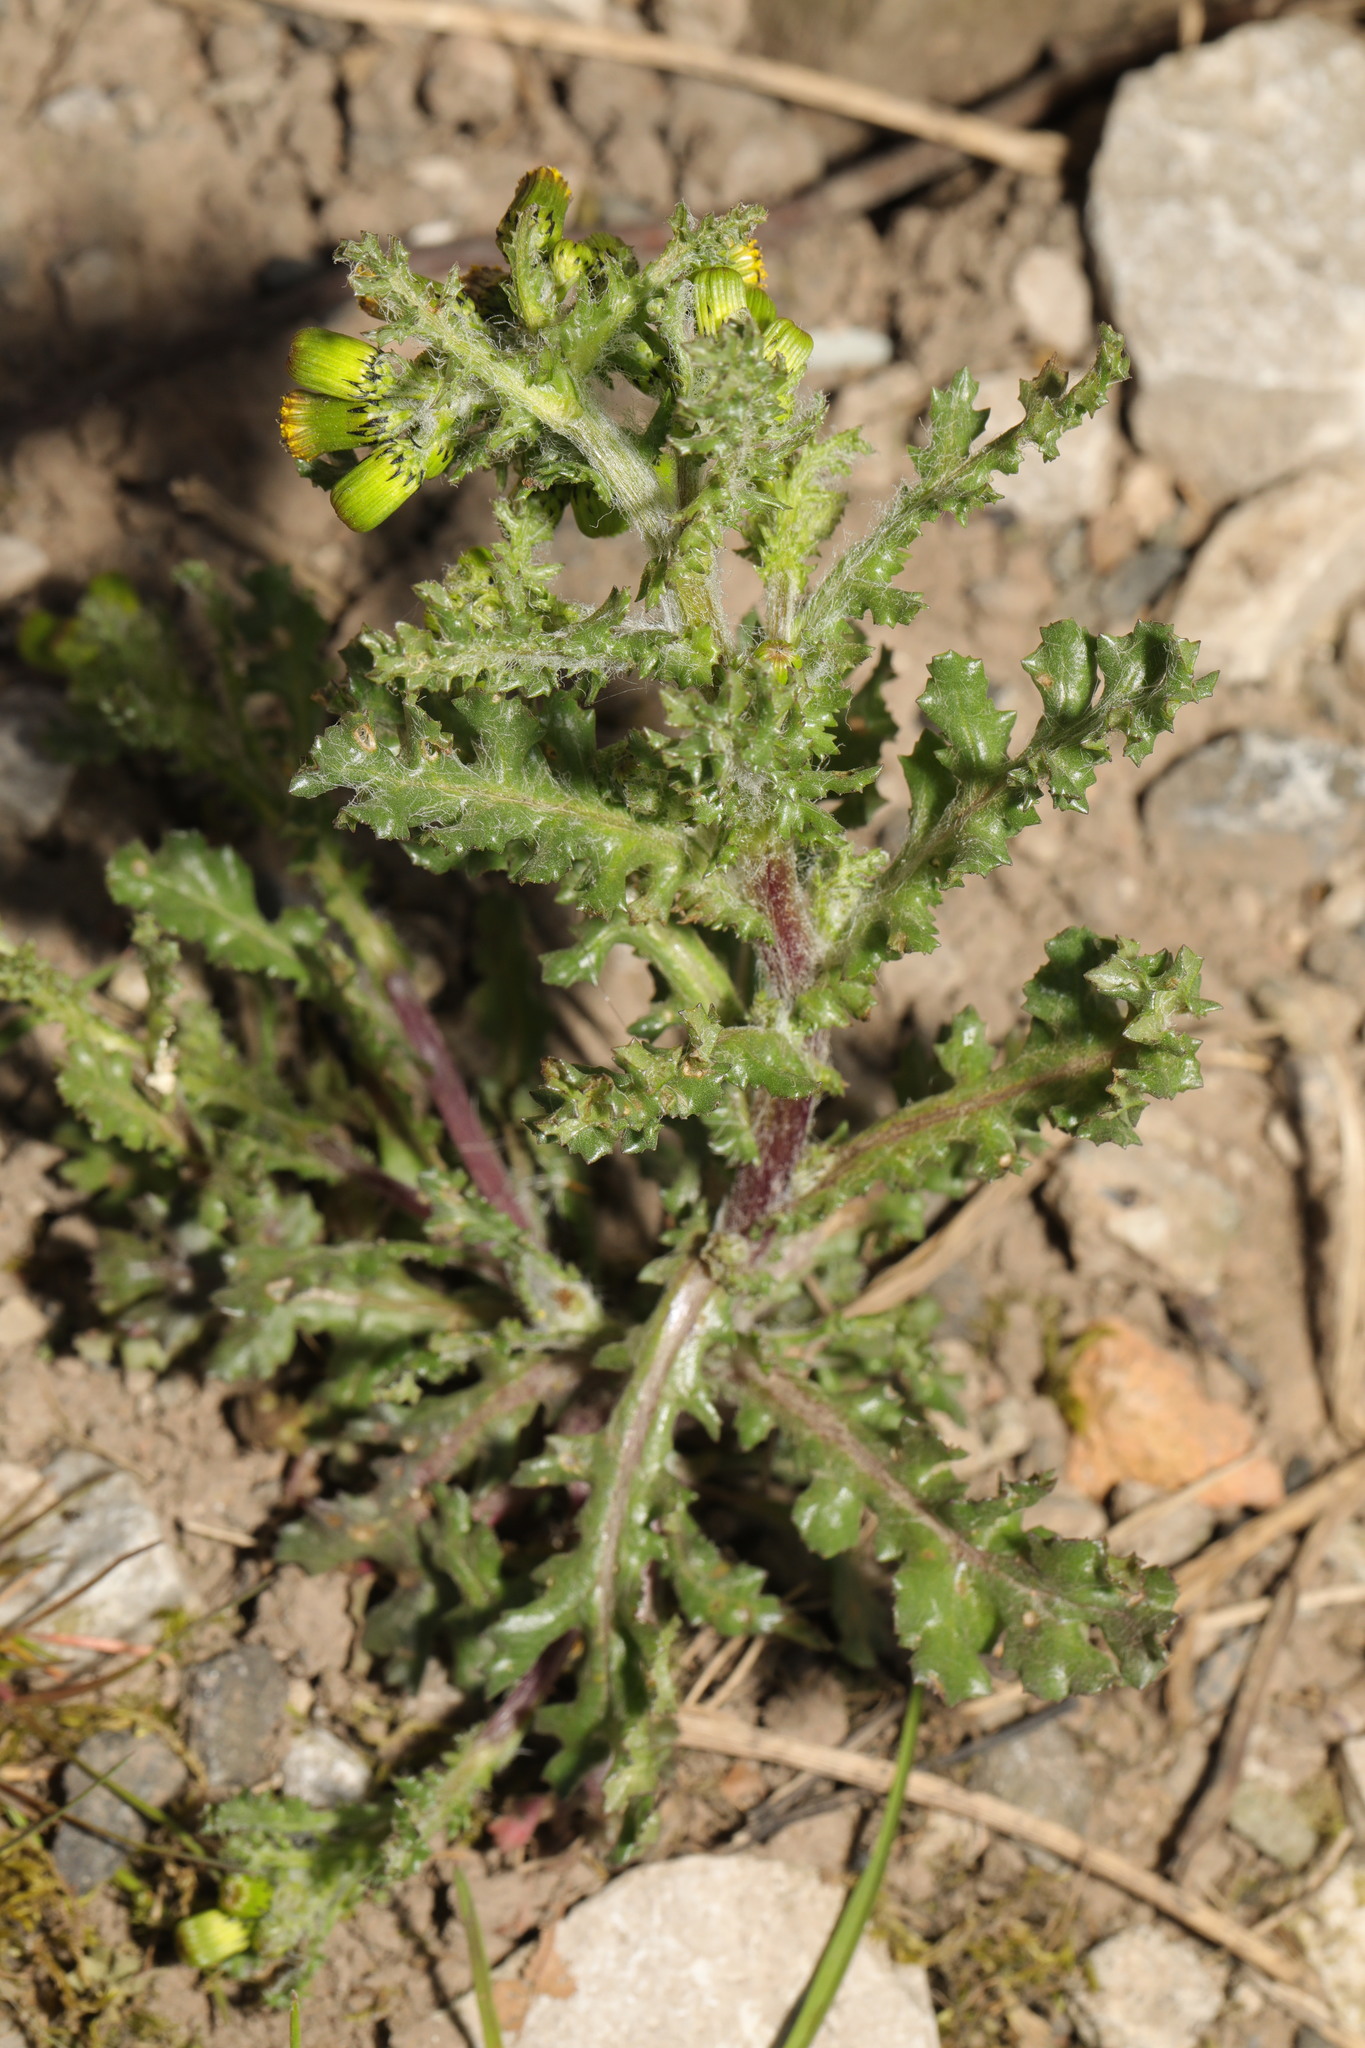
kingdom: Plantae
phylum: Tracheophyta
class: Magnoliopsida
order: Asterales
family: Asteraceae
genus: Senecio
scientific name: Senecio vulgaris
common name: Old-man-in-the-spring
